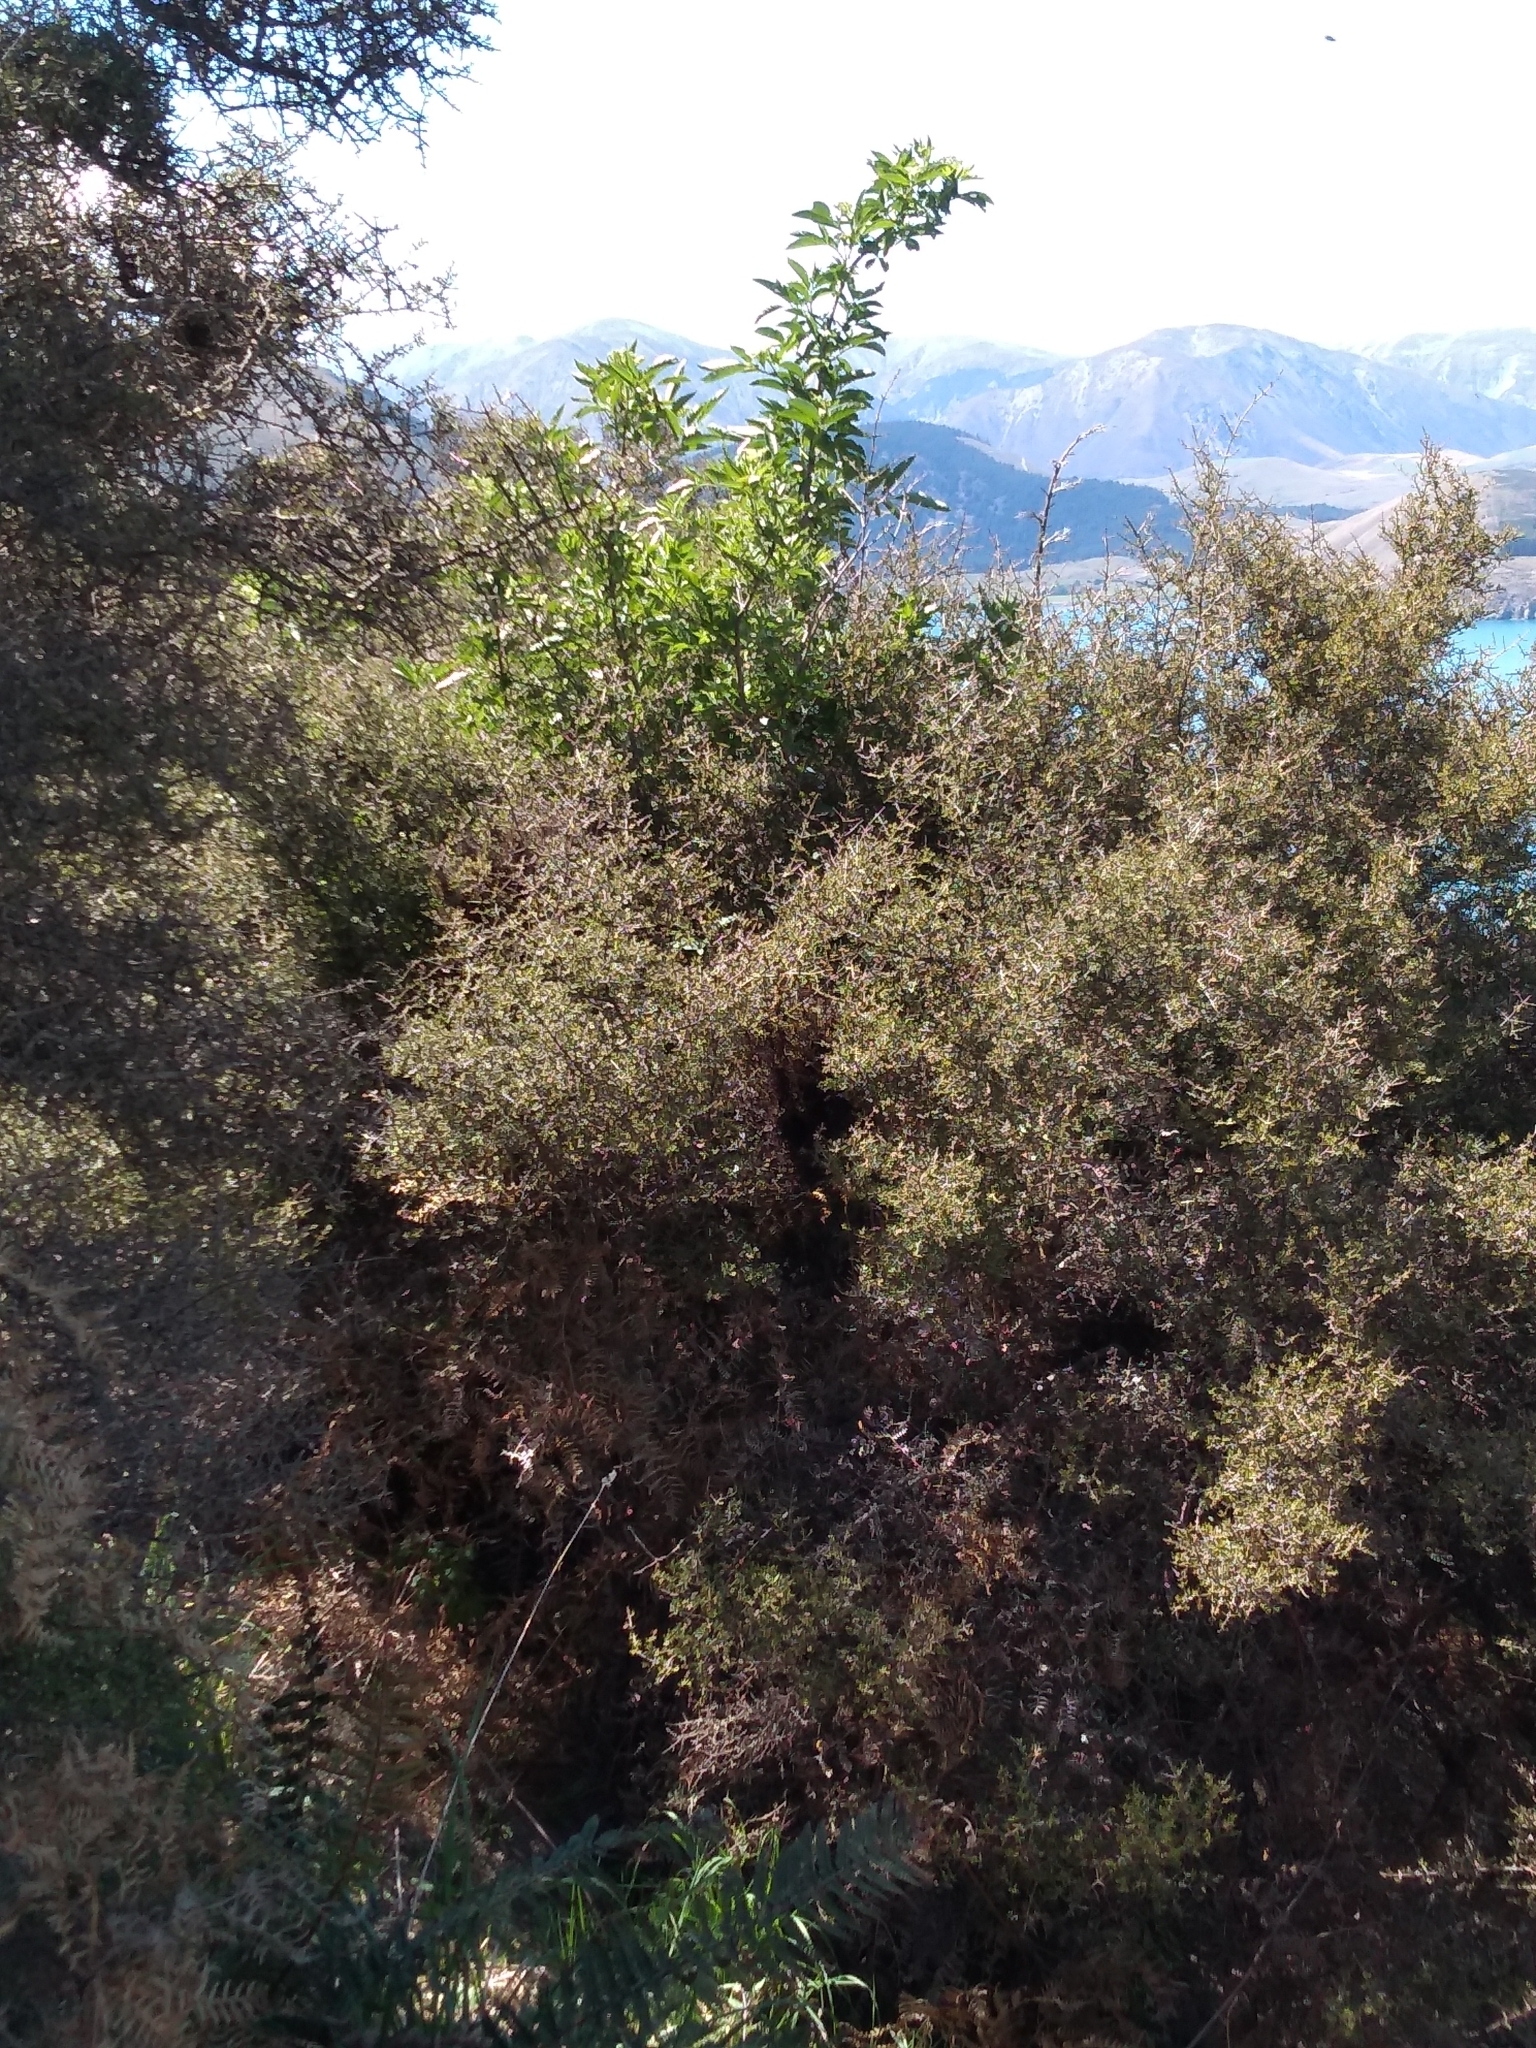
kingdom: Plantae
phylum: Tracheophyta
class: Magnoliopsida
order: Dipsacales
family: Viburnaceae
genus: Sambucus
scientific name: Sambucus nigra
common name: Elder
